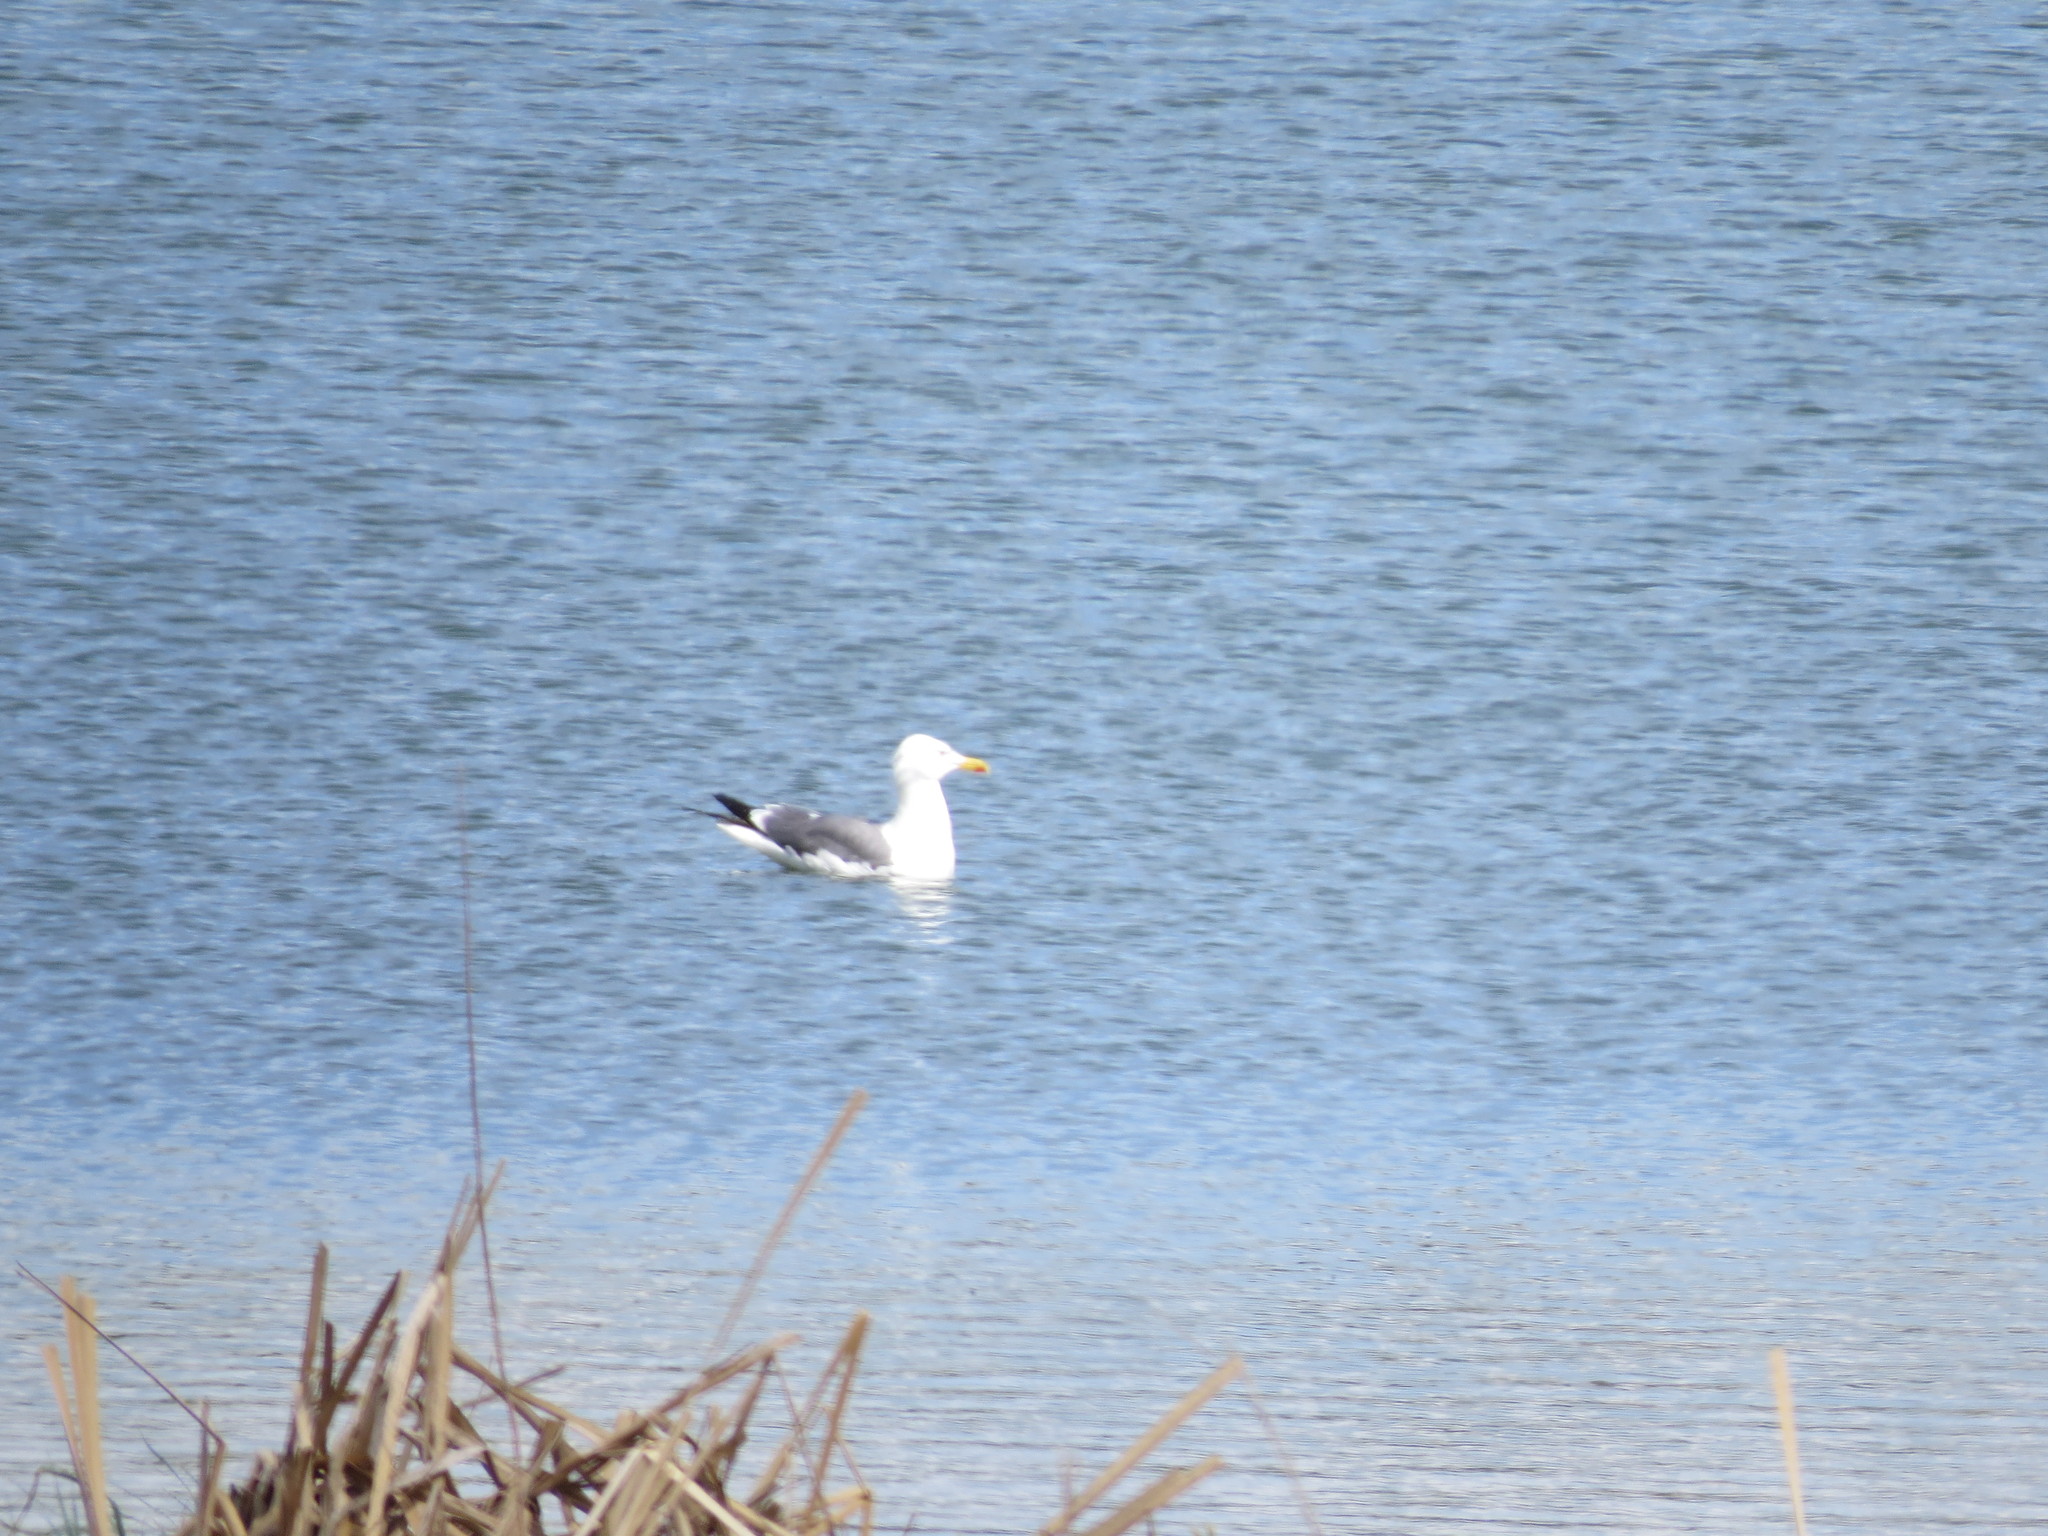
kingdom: Animalia
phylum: Chordata
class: Aves
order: Charadriiformes
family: Laridae
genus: Larus
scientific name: Larus fuscus
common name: Lesser black-backed gull
